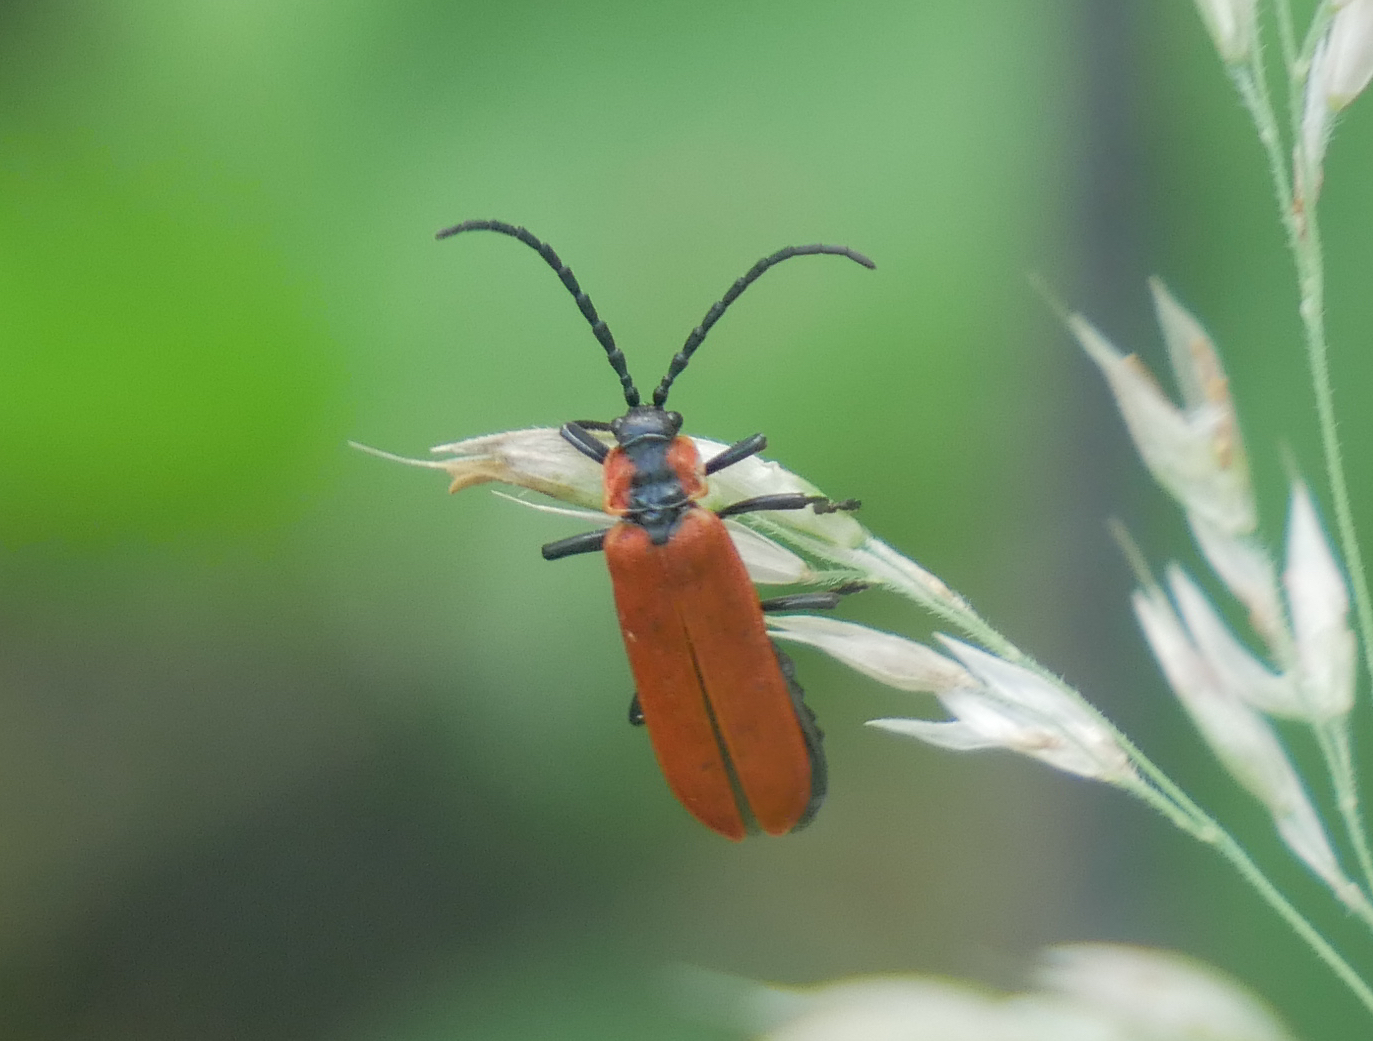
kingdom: Animalia
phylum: Arthropoda
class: Insecta
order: Coleoptera
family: Lycidae
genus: Lygistopterus
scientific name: Lygistopterus sanguineus
